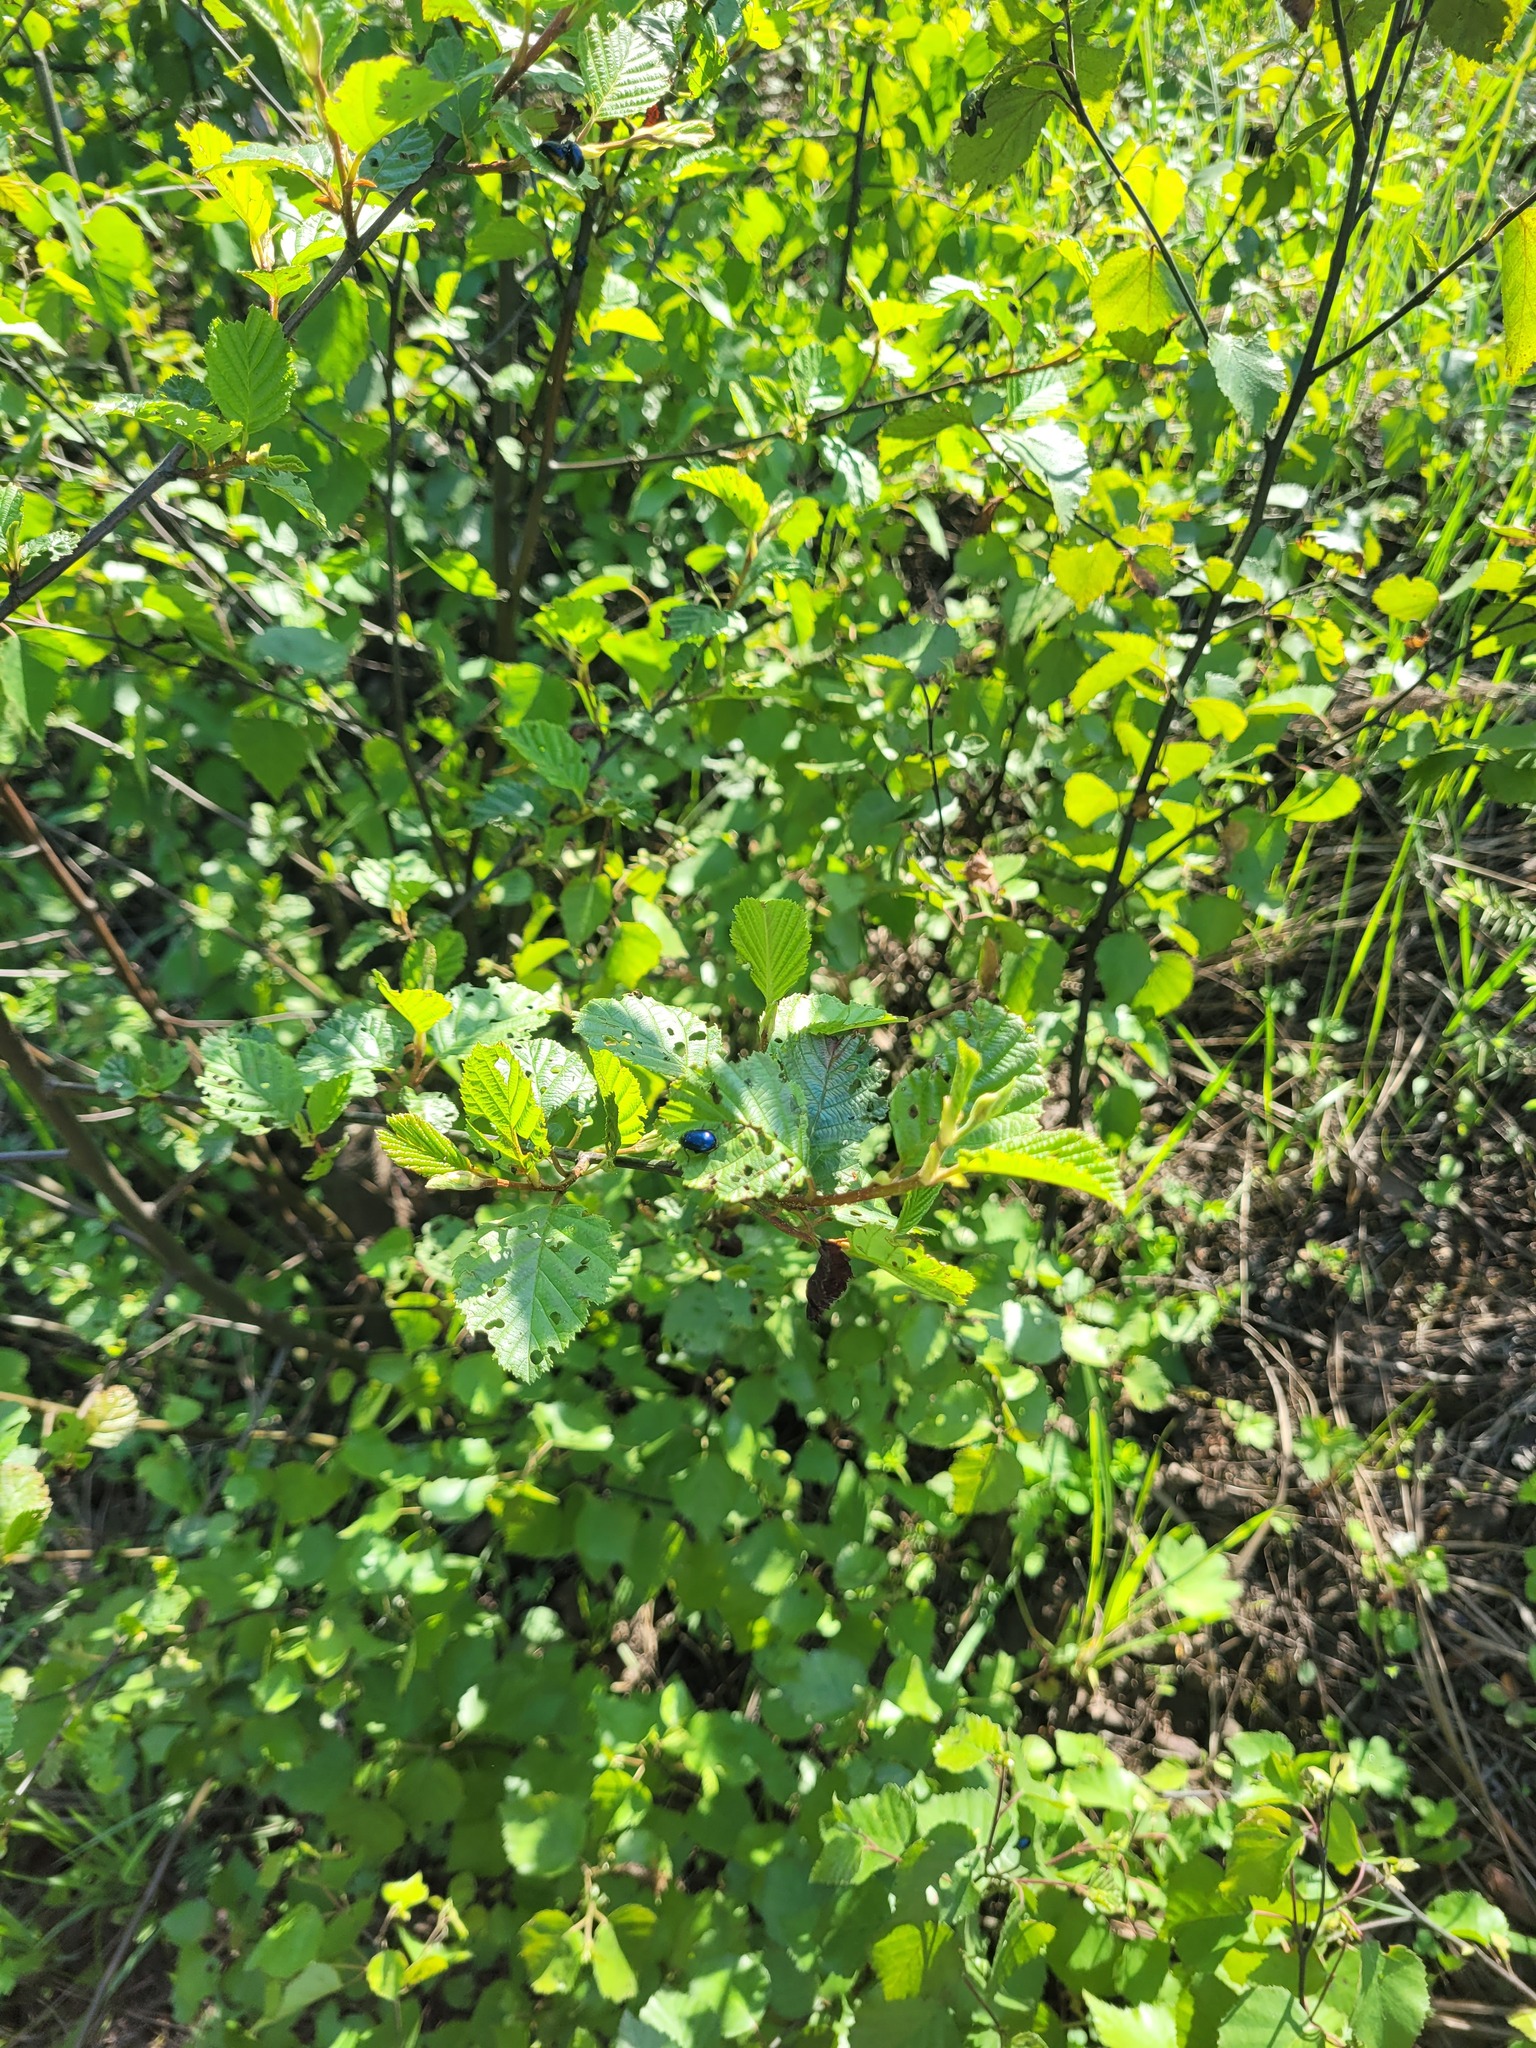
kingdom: Plantae
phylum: Tracheophyta
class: Magnoliopsida
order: Fagales
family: Betulaceae
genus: Alnus
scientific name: Alnus glutinosa
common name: Black alder
